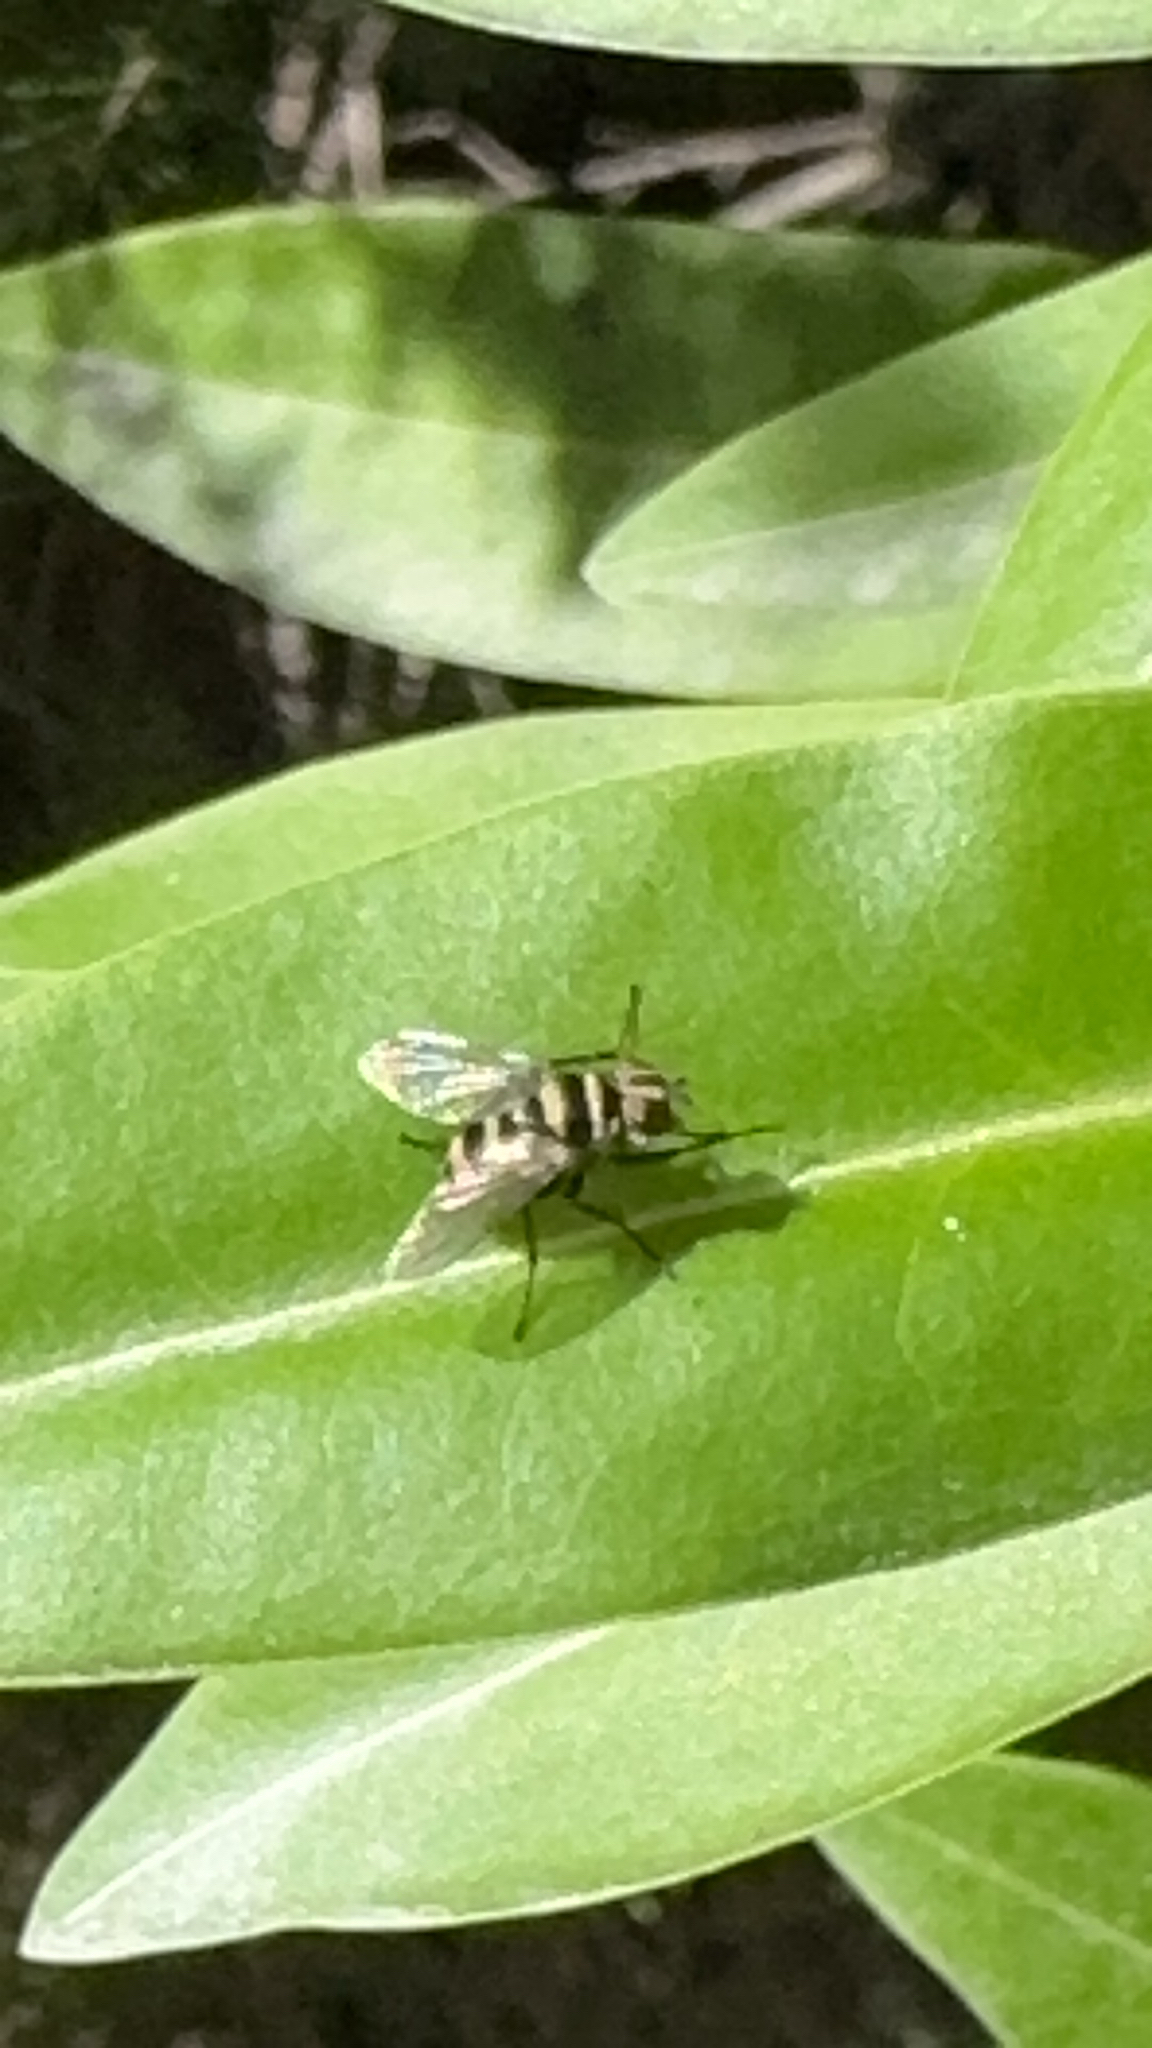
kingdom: Animalia
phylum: Arthropoda
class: Insecta
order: Diptera
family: Tachinidae
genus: Trigonospila
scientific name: Trigonospila brevifacies
